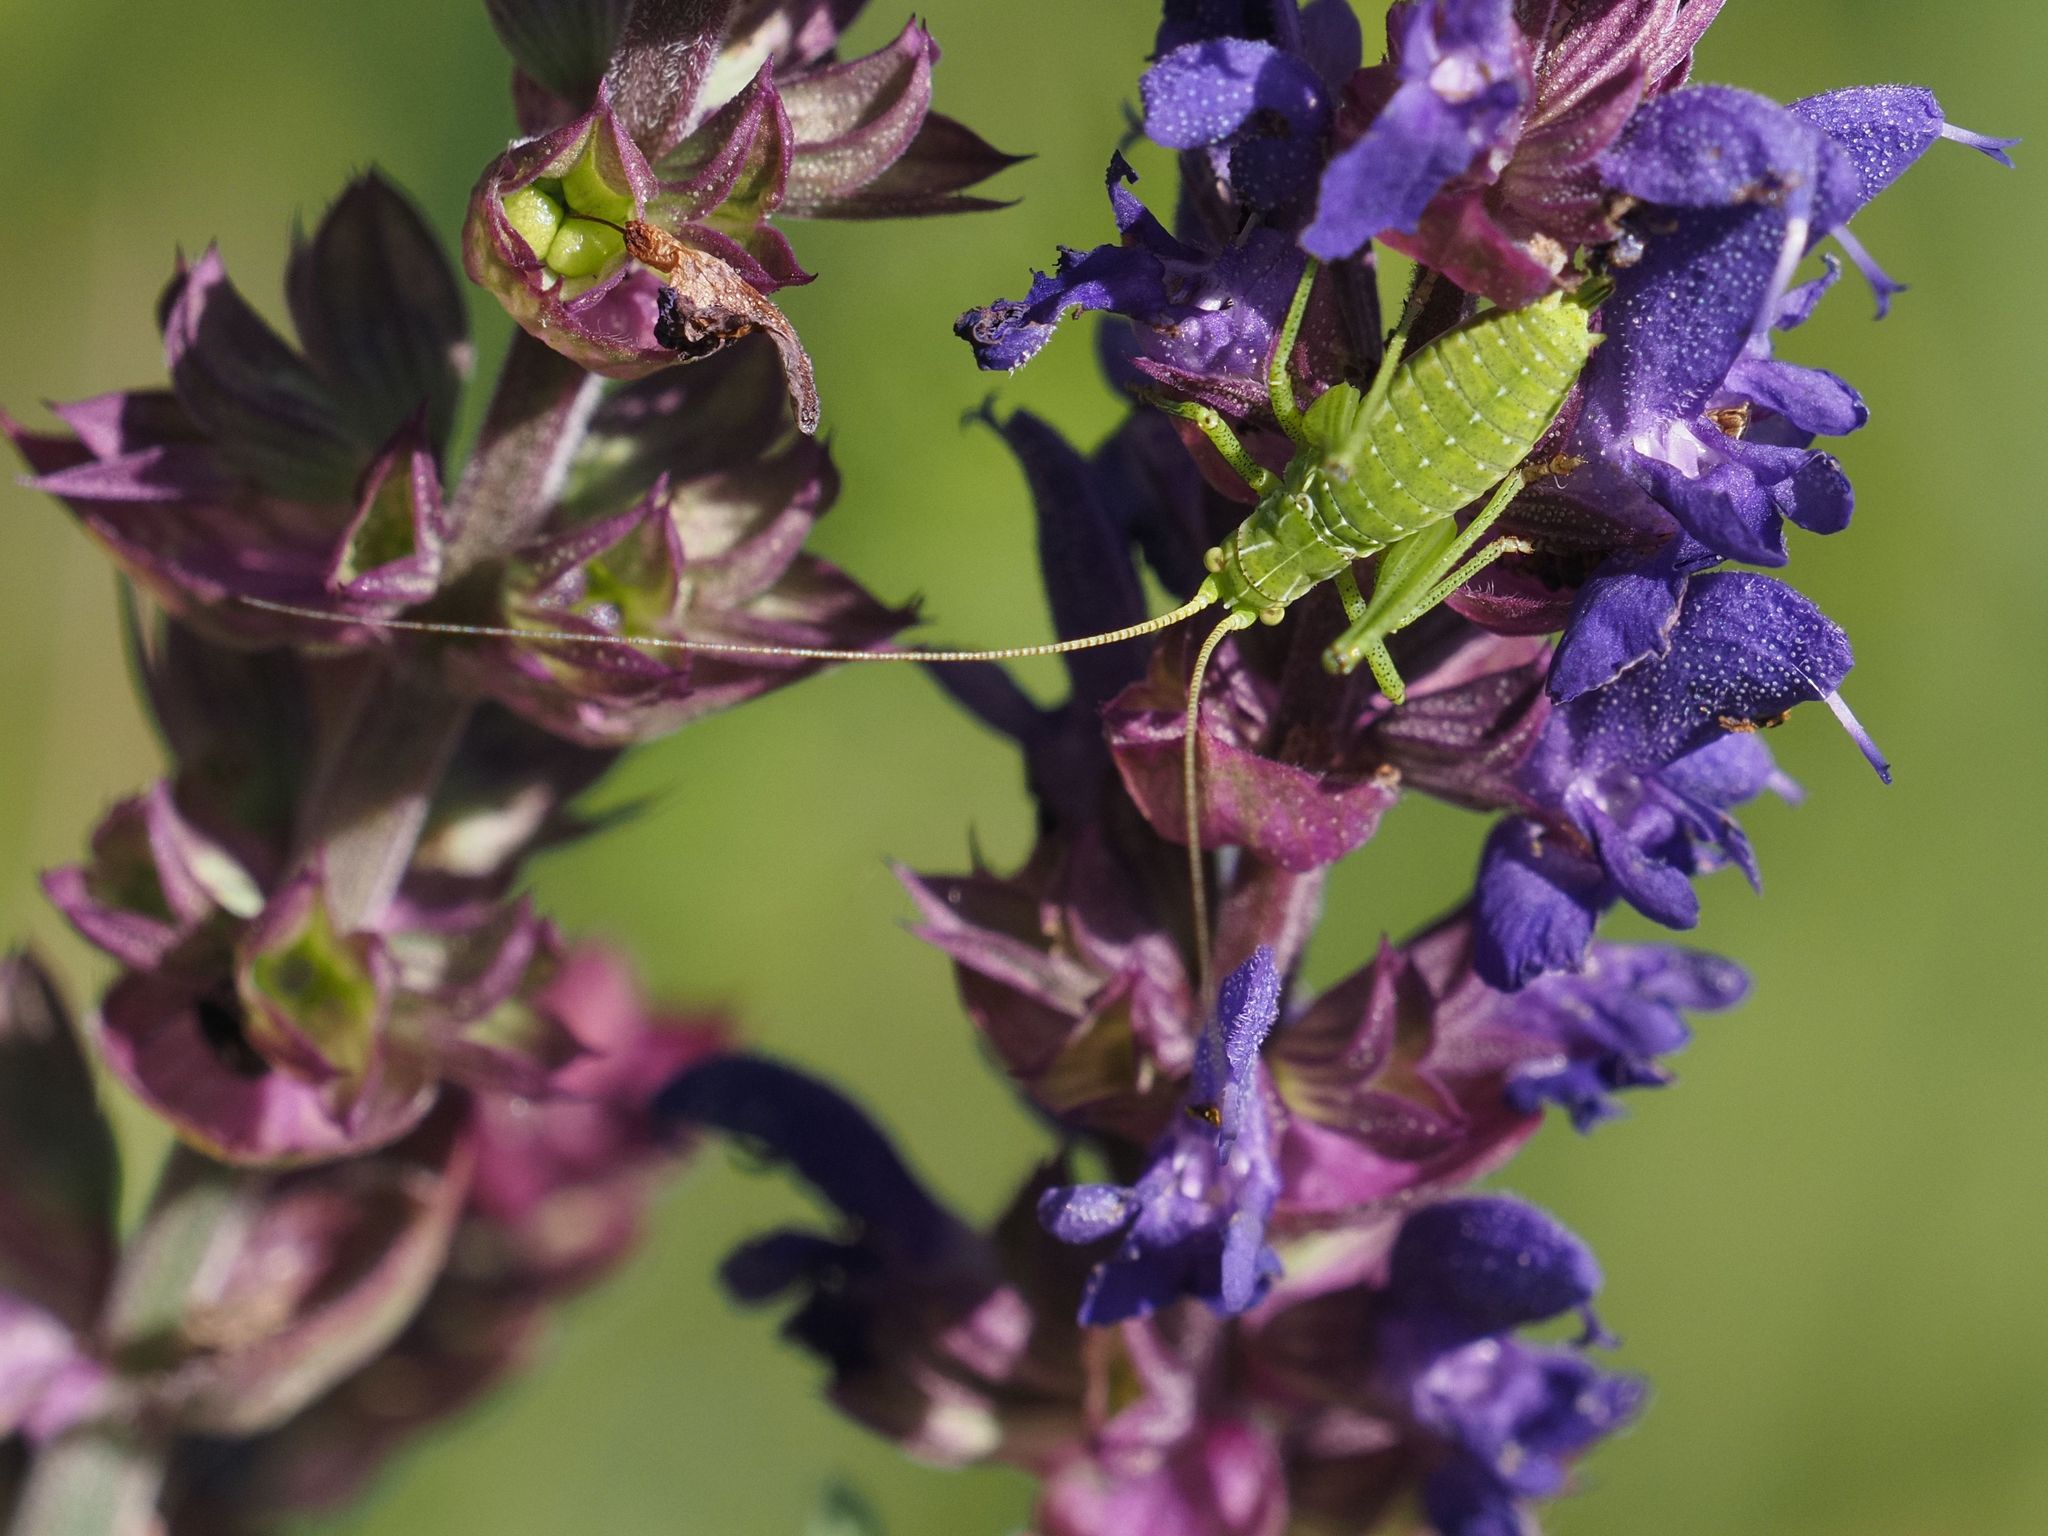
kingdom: Animalia
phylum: Arthropoda
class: Insecta
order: Orthoptera
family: Tettigoniidae
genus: Leptophyes
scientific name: Leptophyes albovittata
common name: Striped bush-cricket
